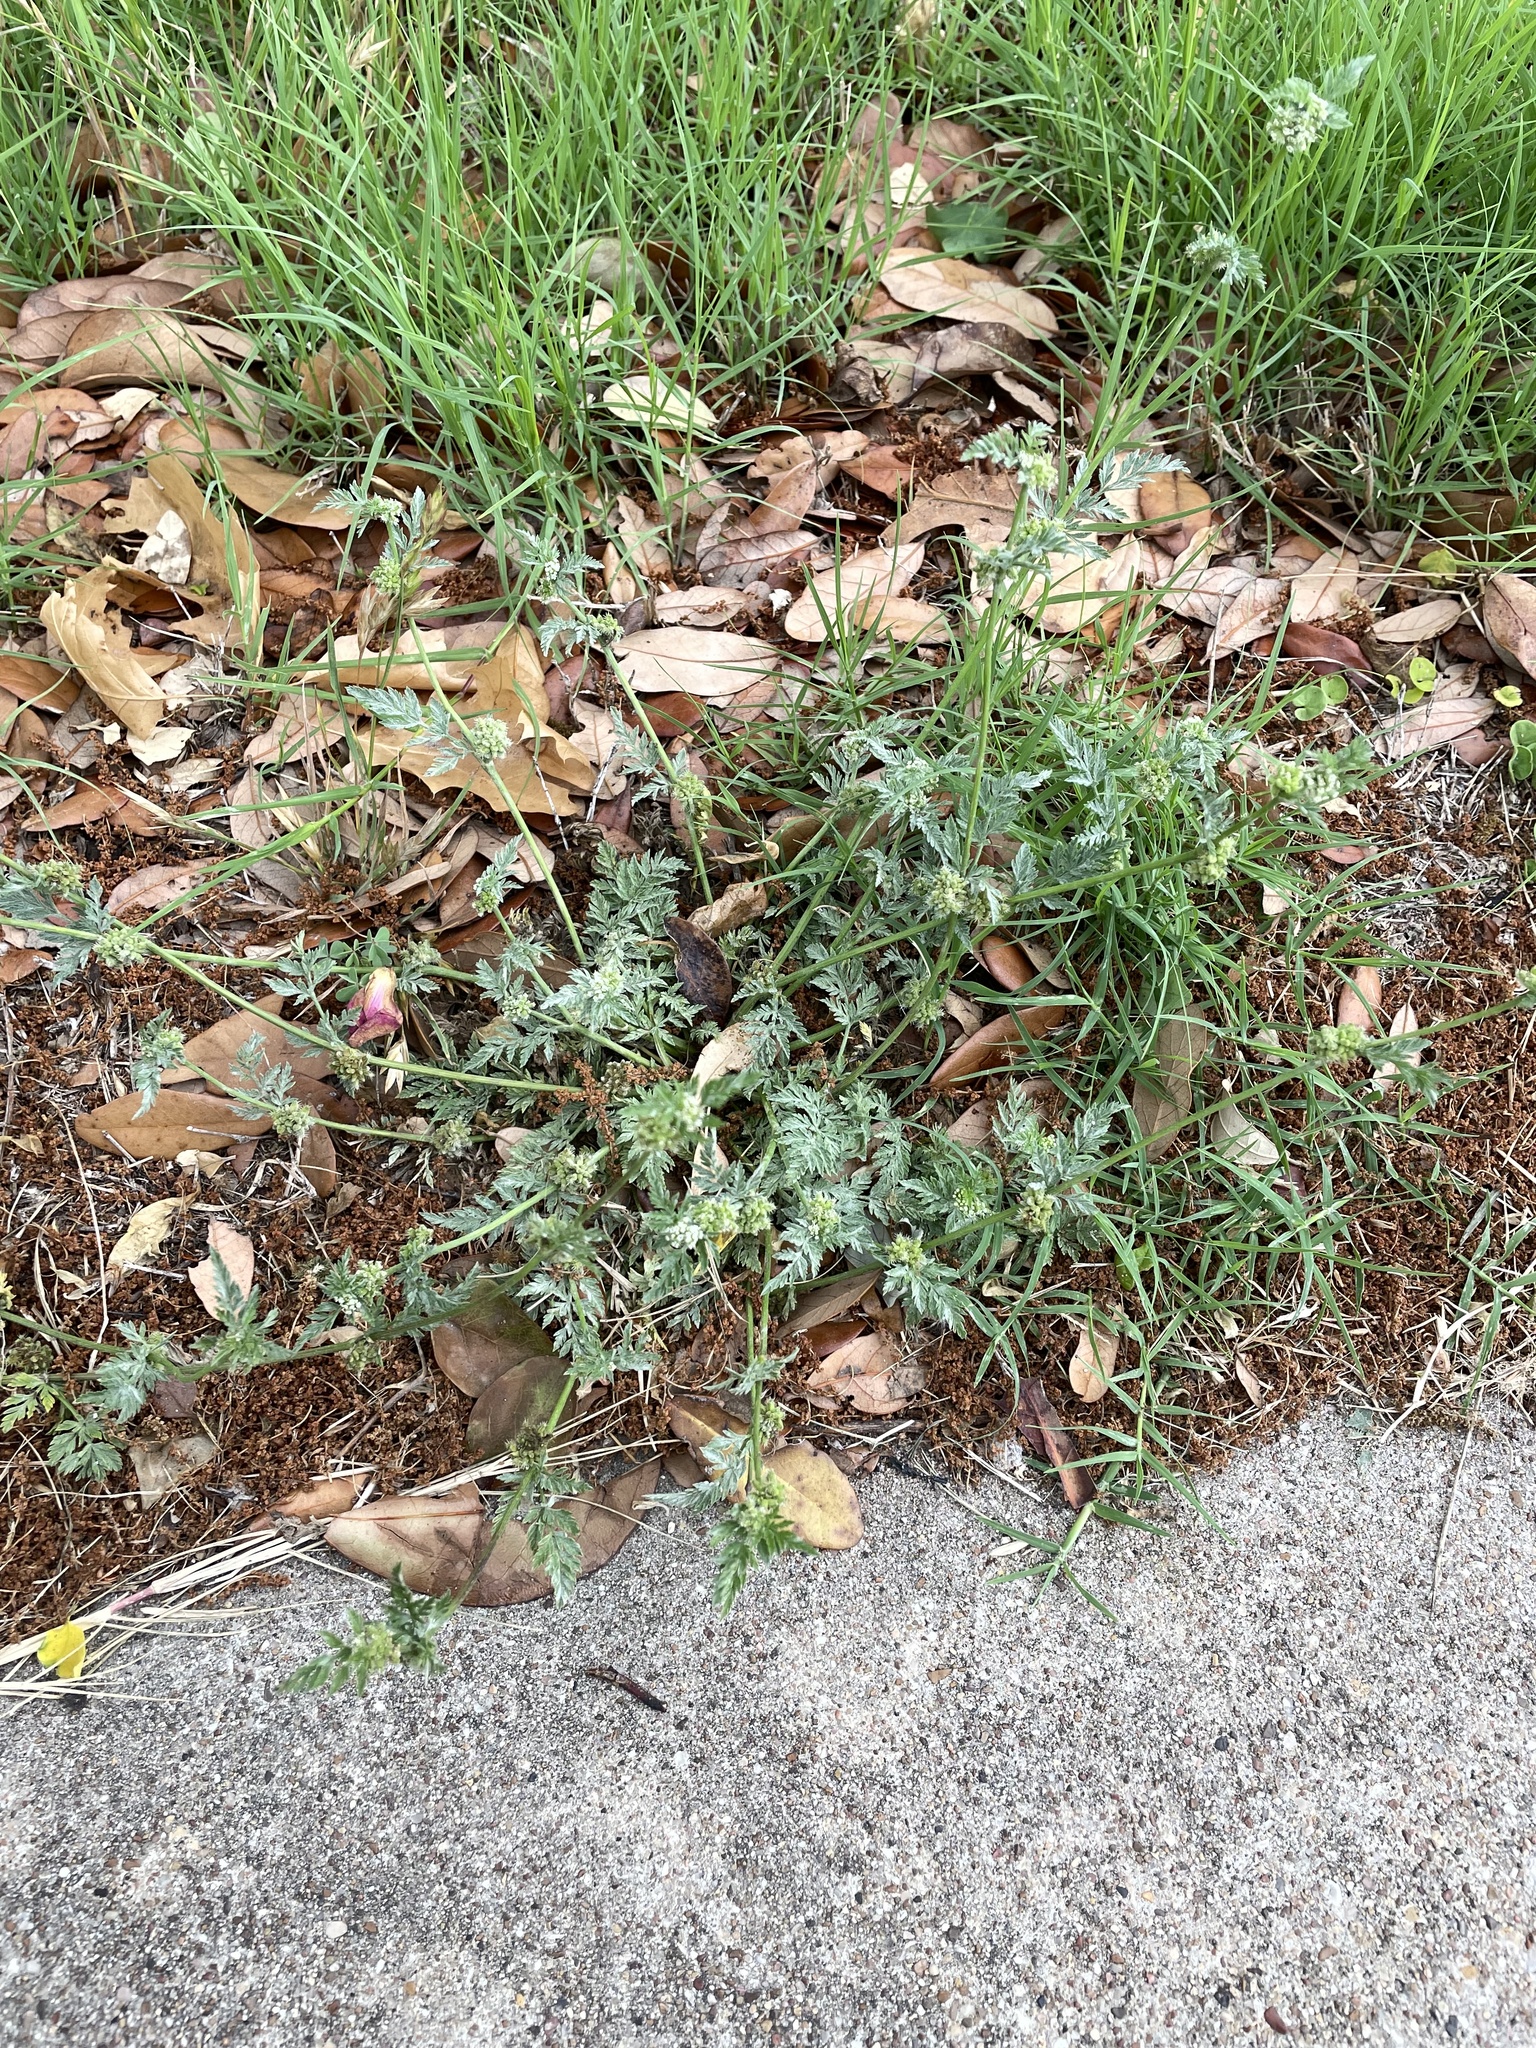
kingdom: Plantae
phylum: Tracheophyta
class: Magnoliopsida
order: Apiales
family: Apiaceae
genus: Torilis
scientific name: Torilis nodosa
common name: Knotted hedge-parsley
